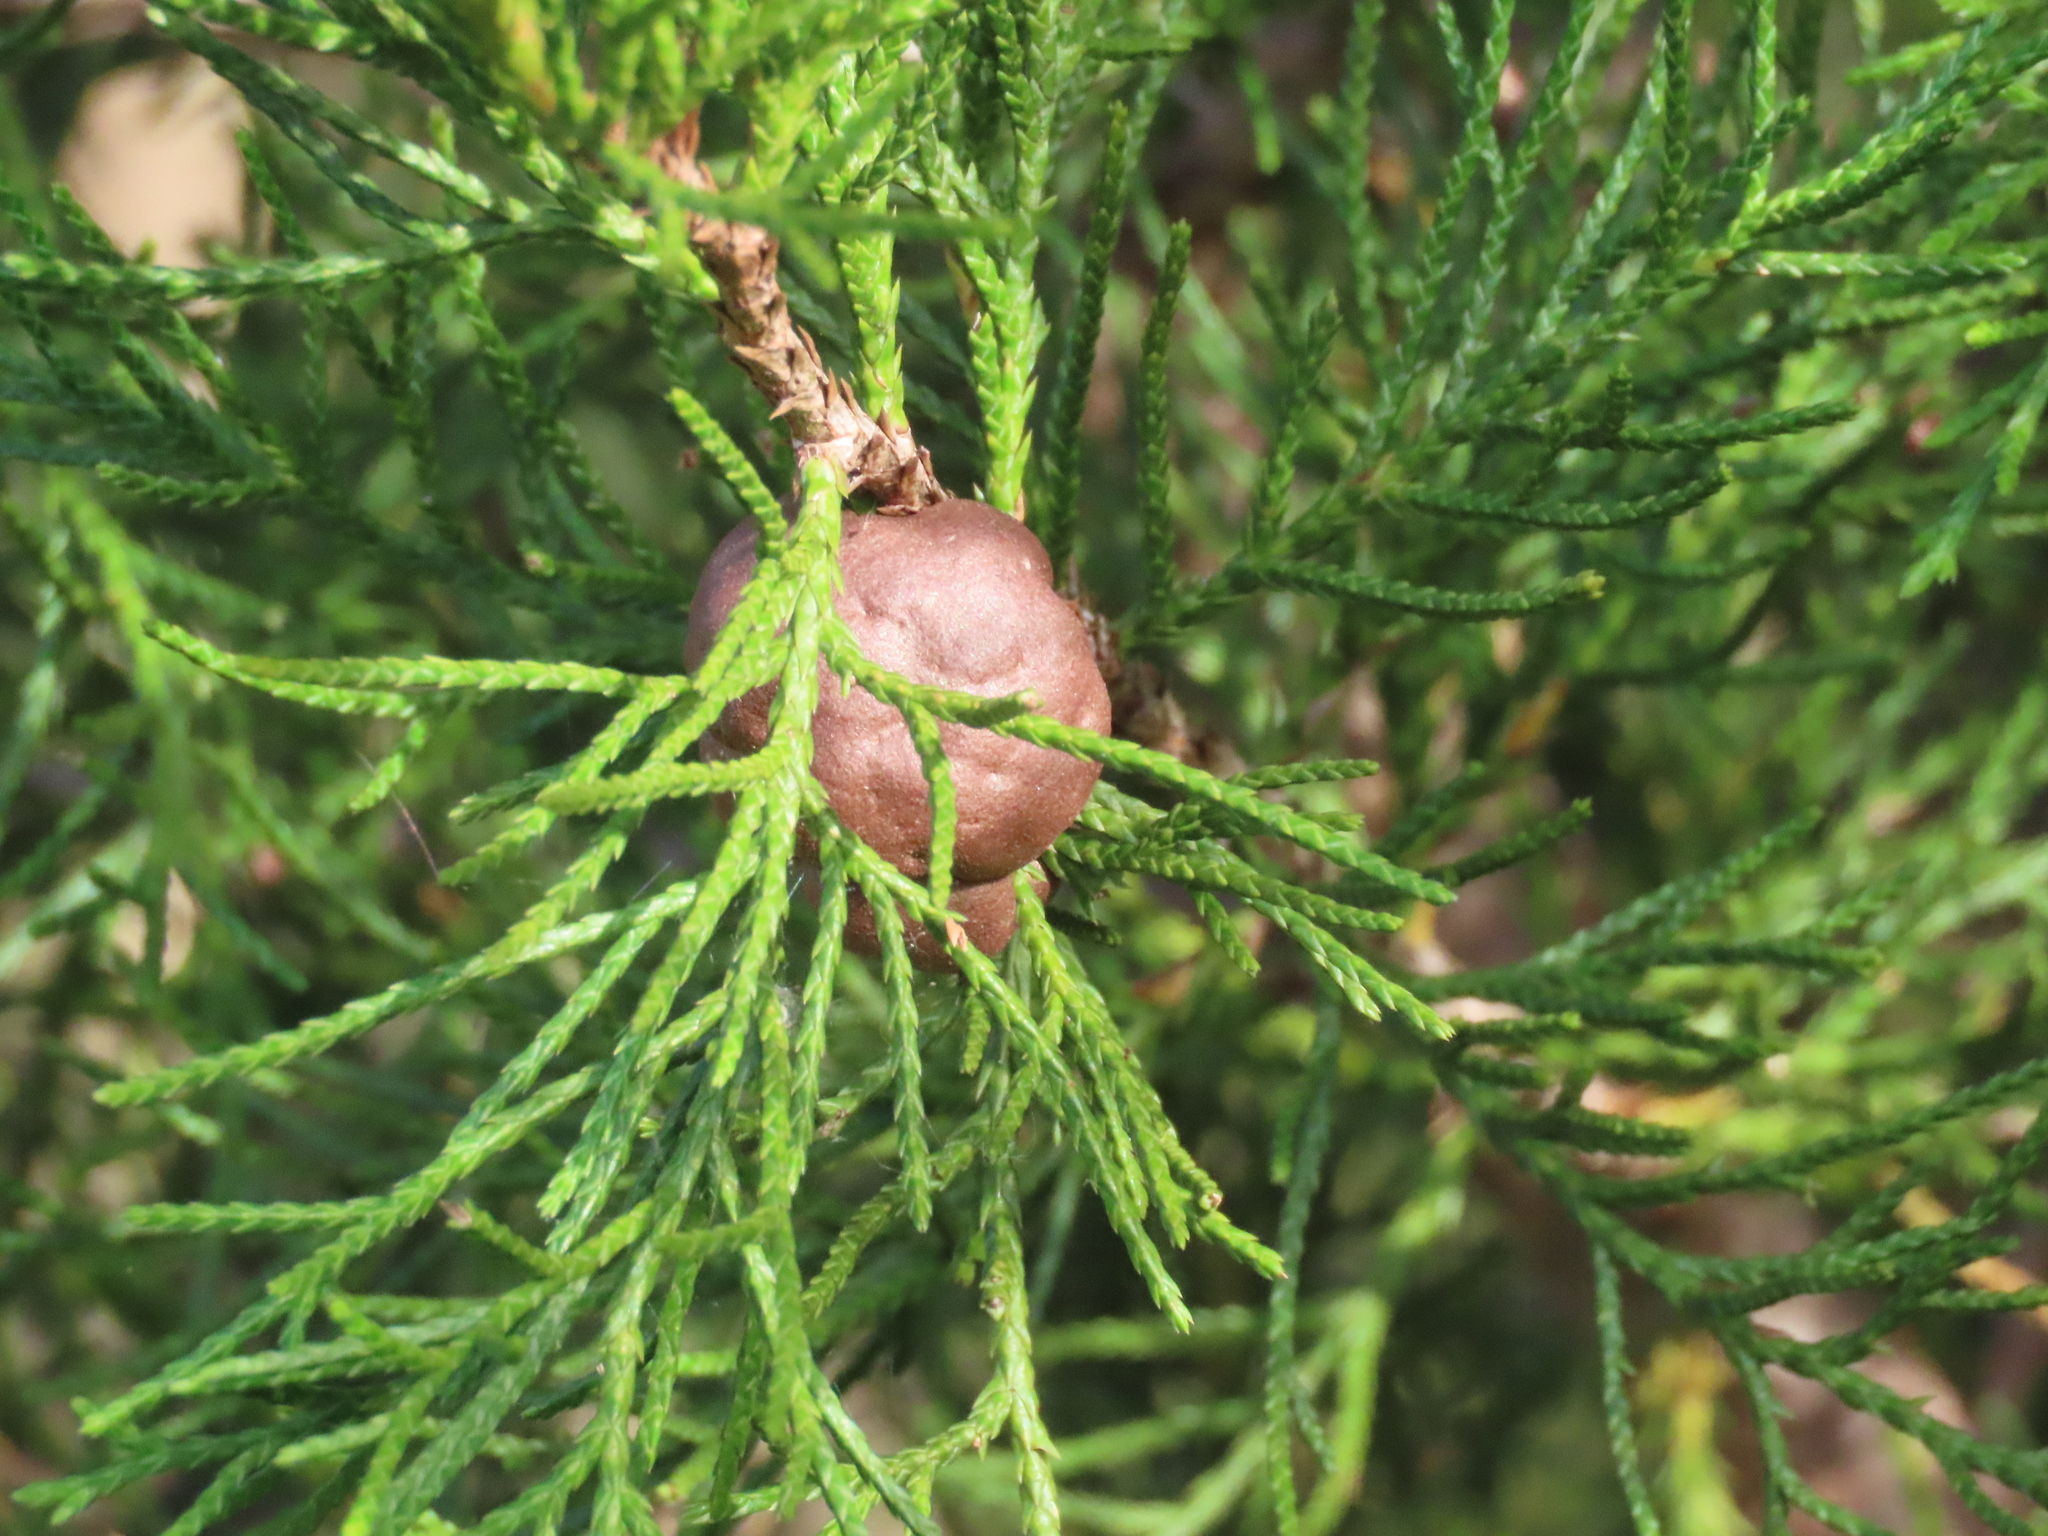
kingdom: Fungi
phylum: Basidiomycota
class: Pucciniomycetes
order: Pucciniales
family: Gymnosporangiaceae
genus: Gymnosporangium
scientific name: Gymnosporangium juniperi-virginianae
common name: Juniper-apple rust
